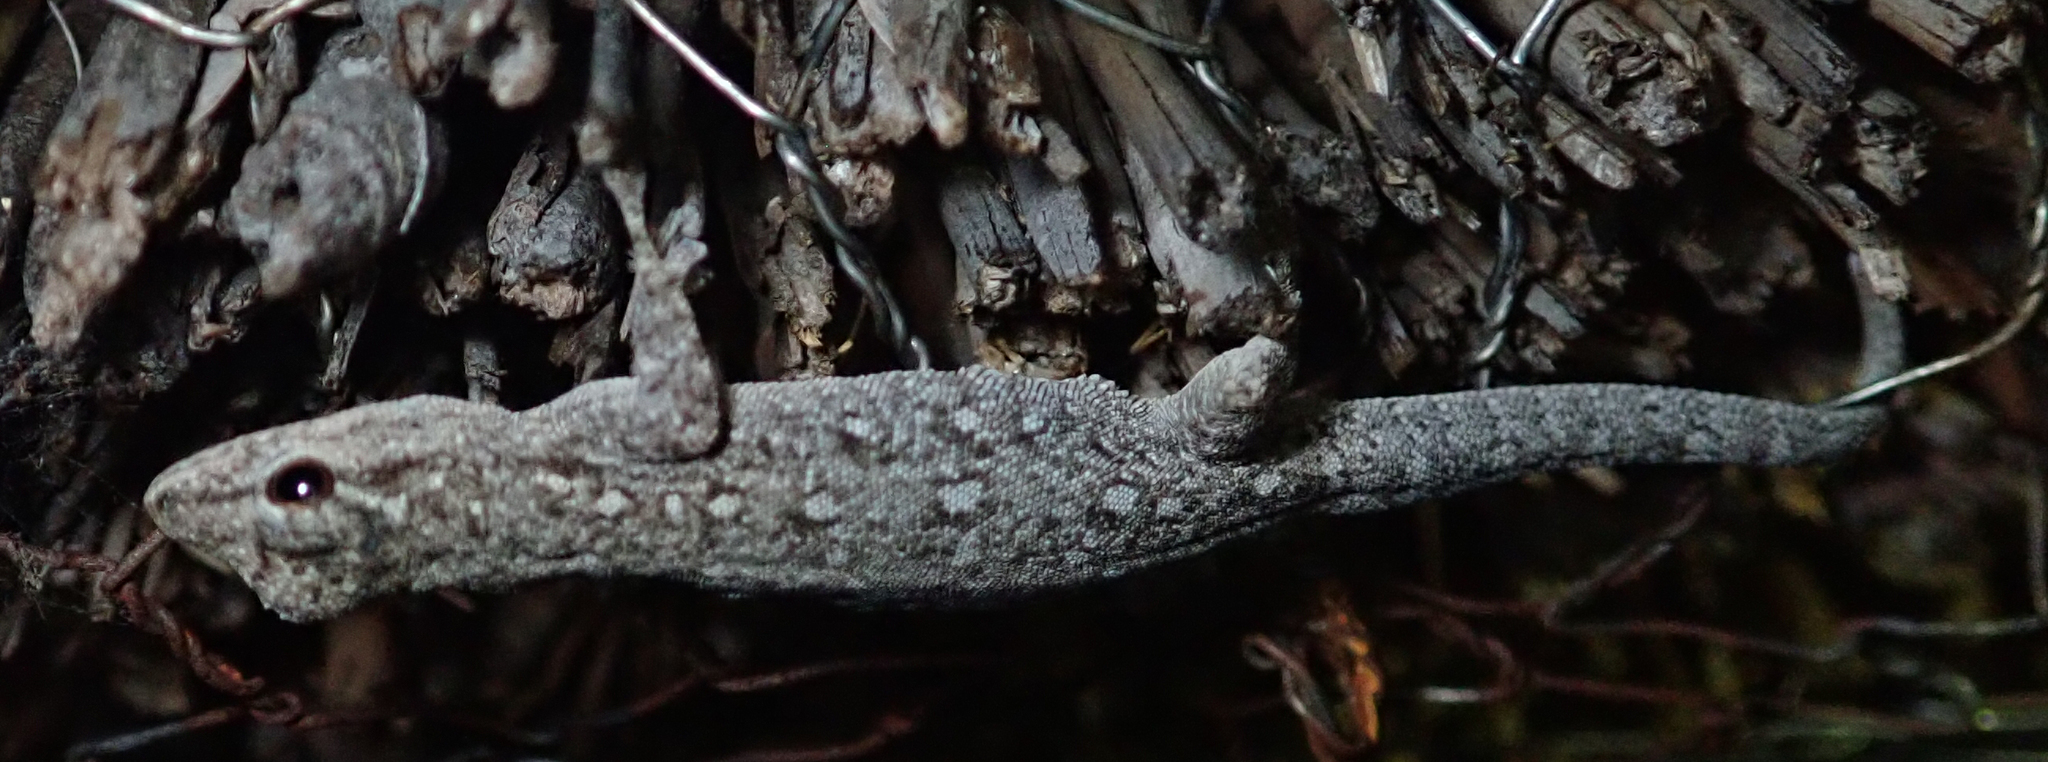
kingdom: Animalia
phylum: Chordata
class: Squamata
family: Gekkonidae
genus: Lygodactylus
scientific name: Lygodactylus chobiensis
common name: Okavango dwarf gecko
